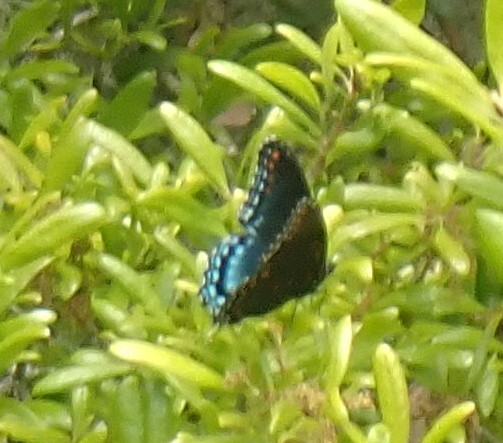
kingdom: Animalia
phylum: Arthropoda
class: Insecta
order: Lepidoptera
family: Nymphalidae
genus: Limenitis
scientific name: Limenitis astyanax
